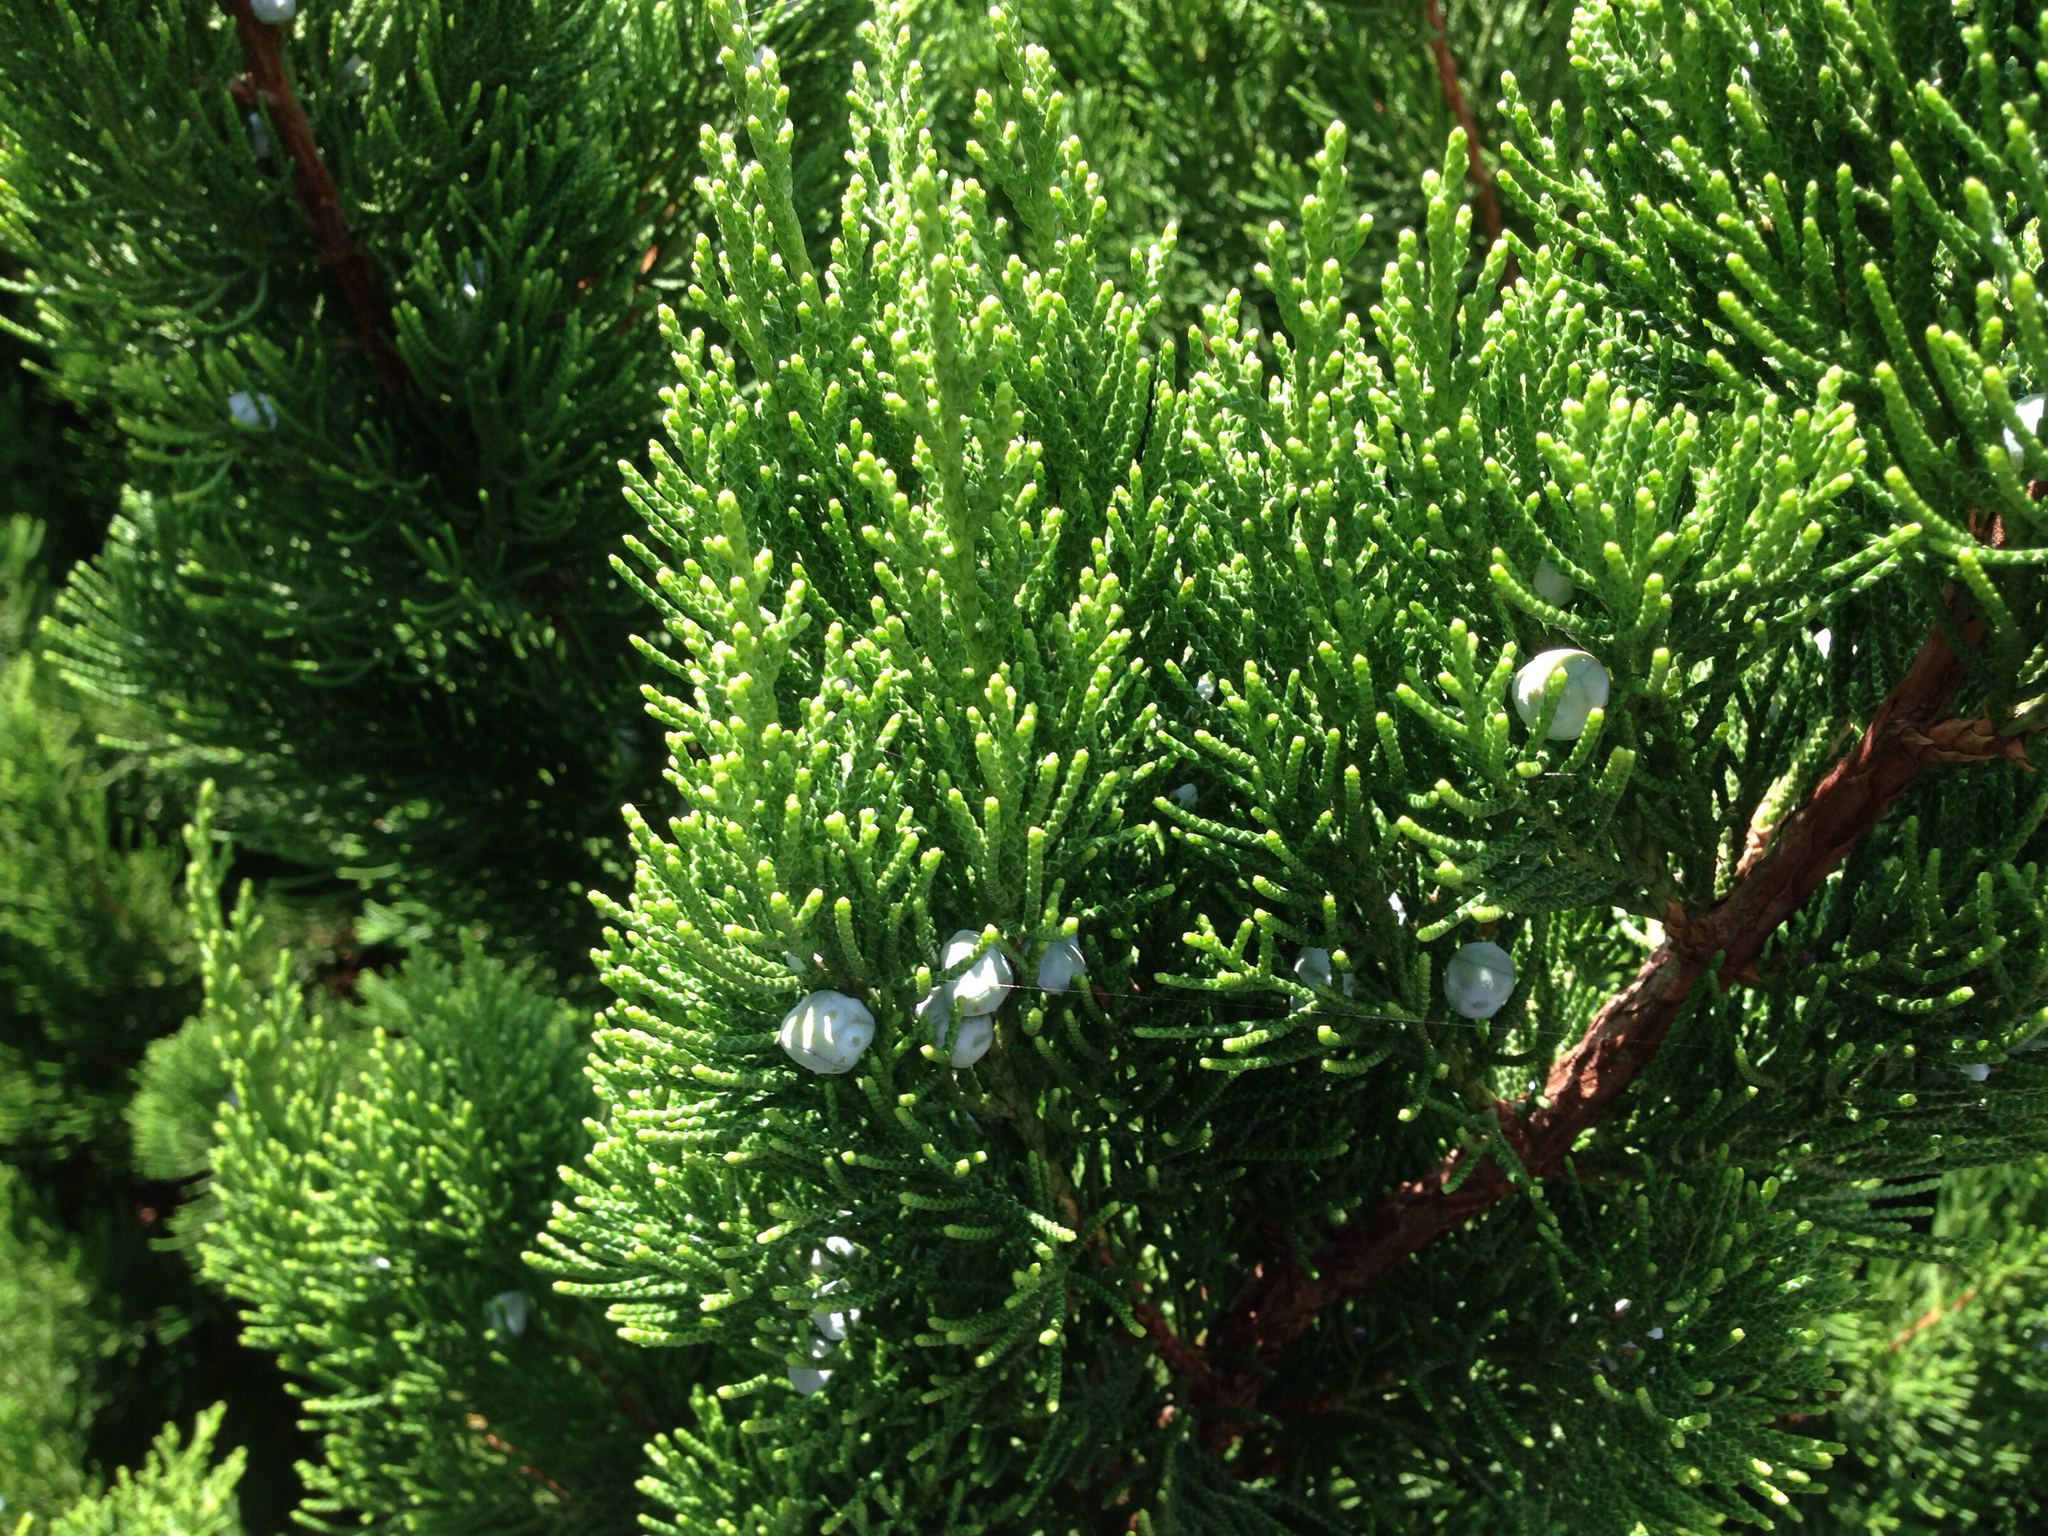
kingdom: Plantae
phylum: Tracheophyta
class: Pinopsida
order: Pinales
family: Cupressaceae
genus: Juniperus
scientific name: Juniperus chinensis
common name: Chinese juniper
